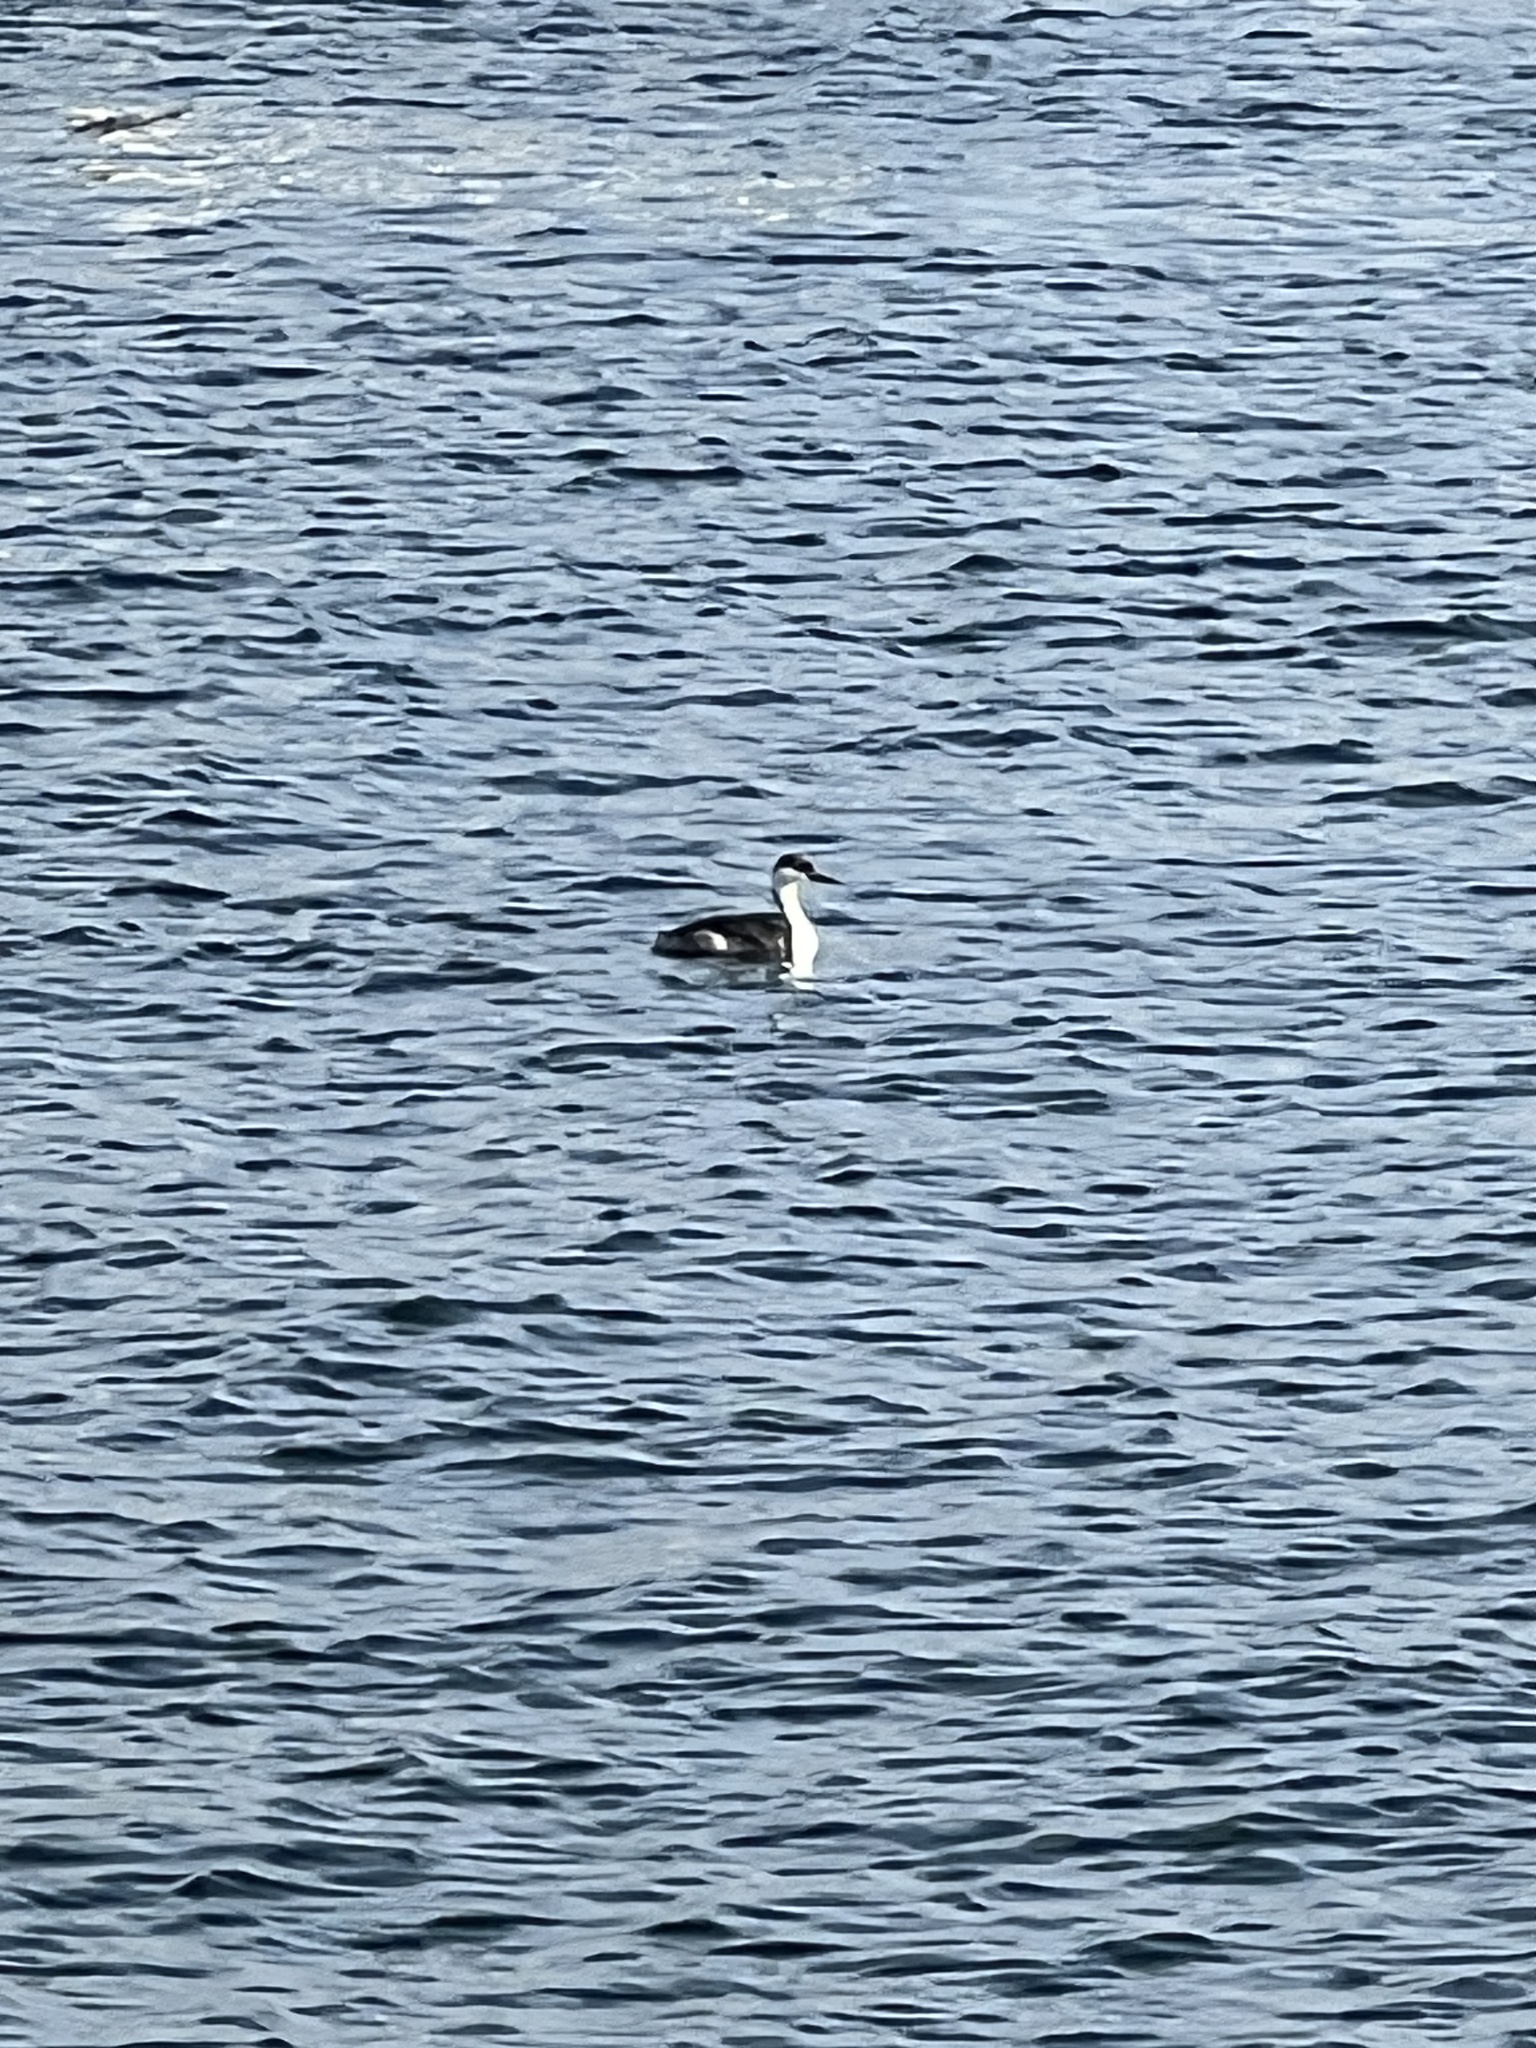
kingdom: Animalia
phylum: Chordata
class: Aves
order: Podicipediformes
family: Podicipedidae
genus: Aechmophorus
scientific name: Aechmophorus occidentalis
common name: Western grebe
